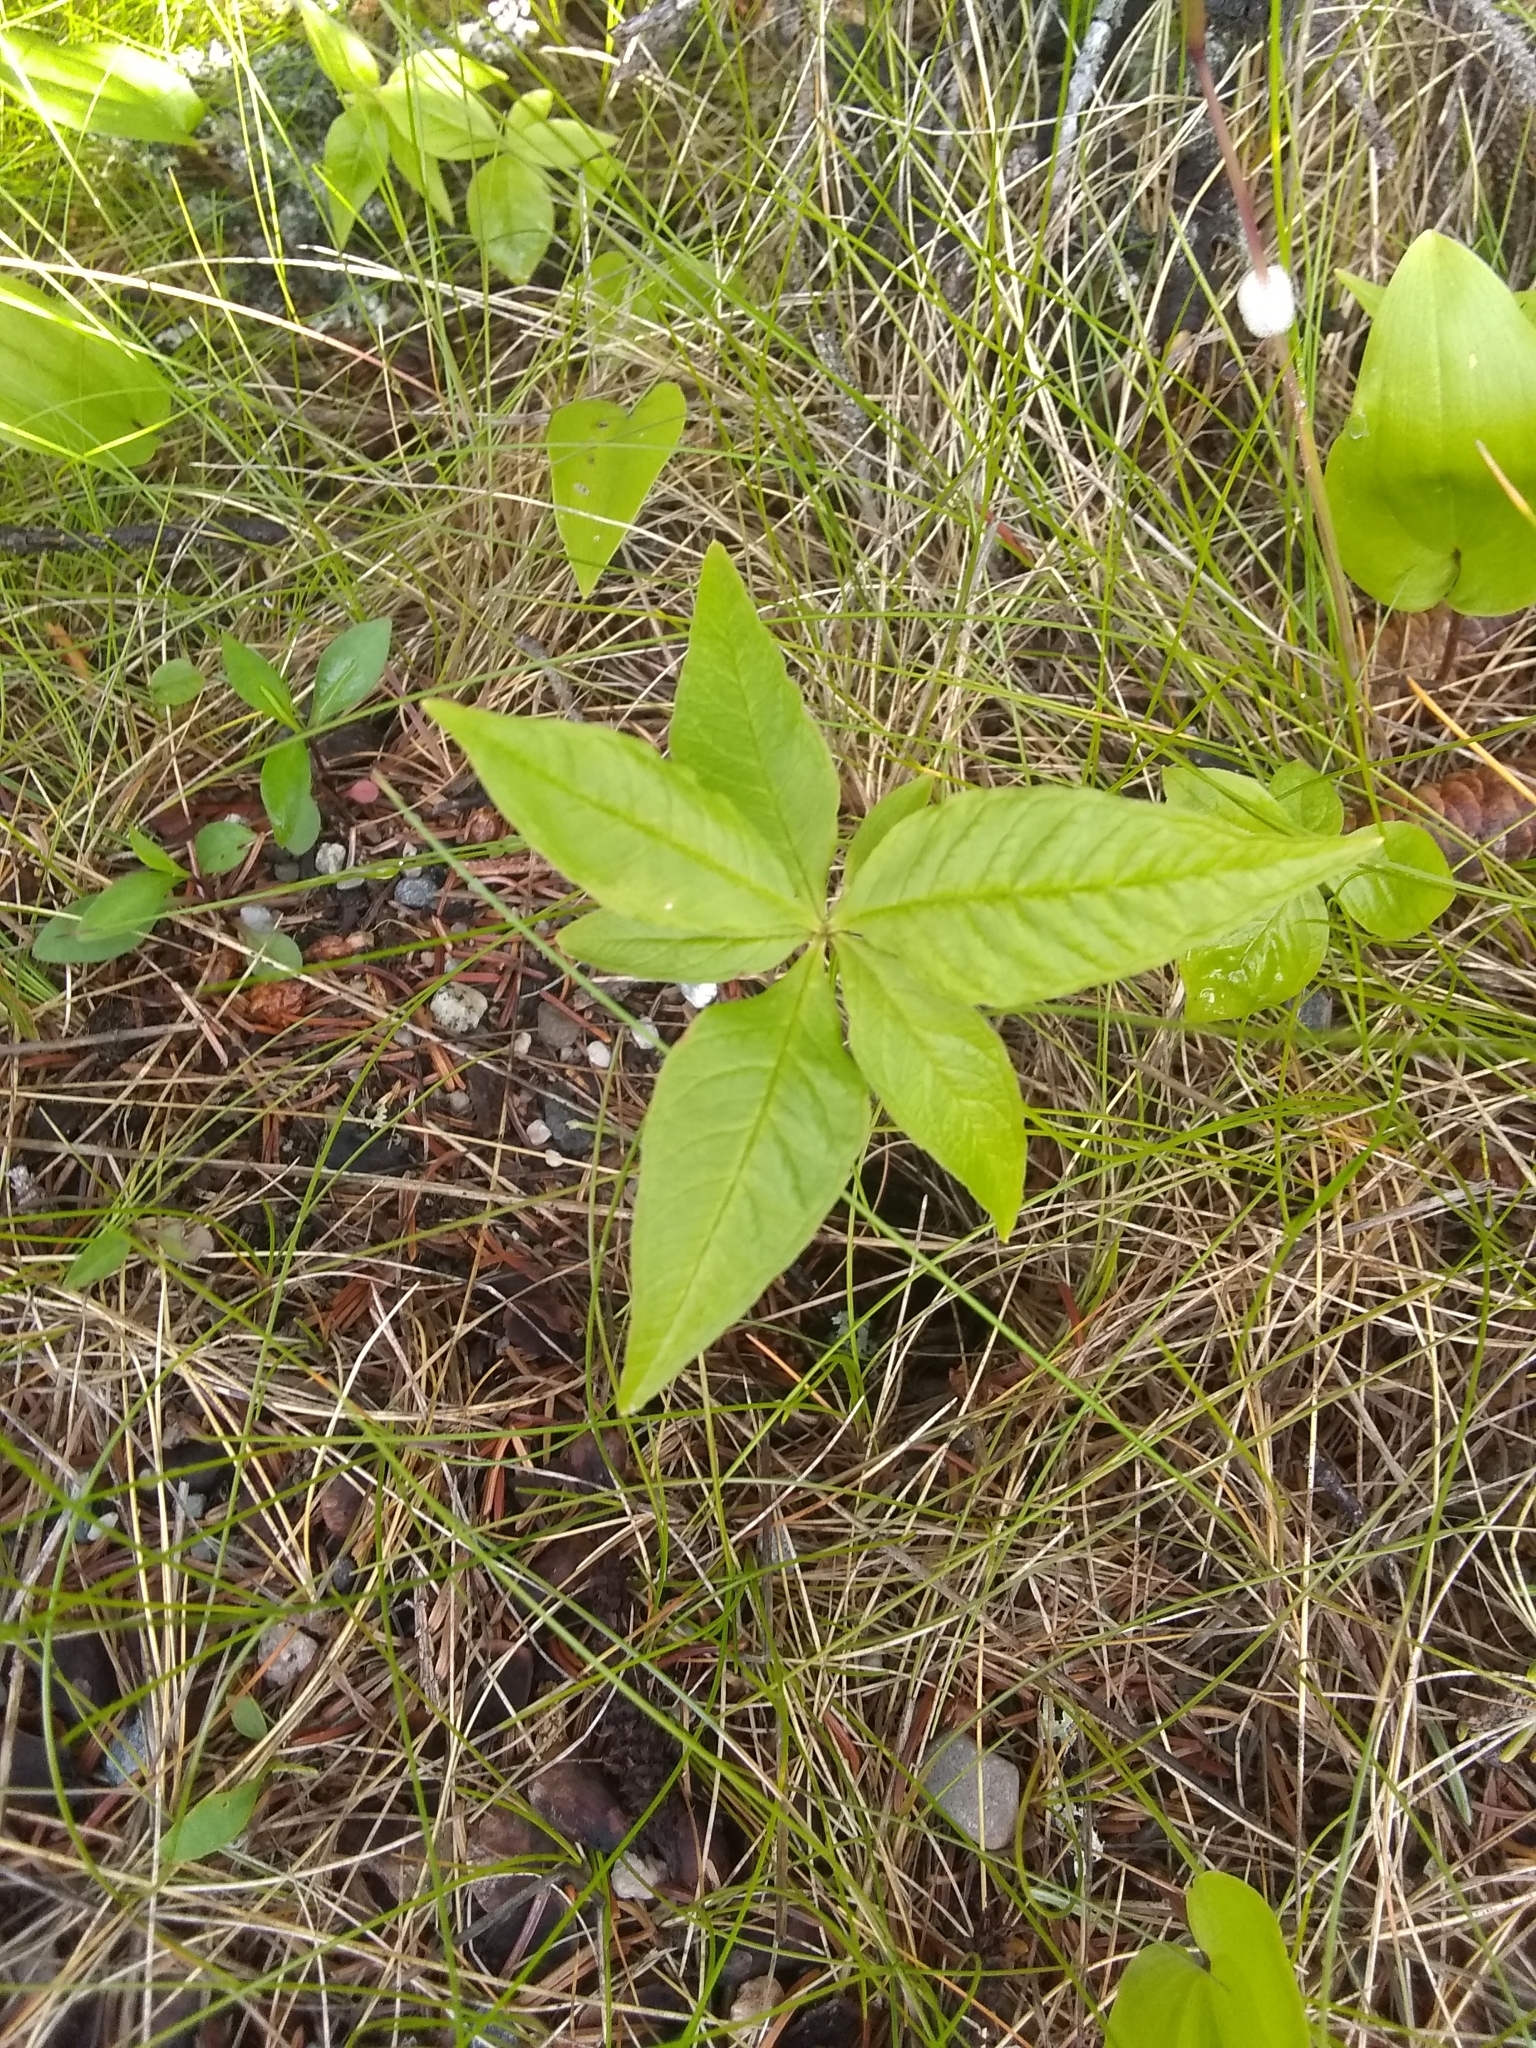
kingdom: Plantae
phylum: Tracheophyta
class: Magnoliopsida
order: Ericales
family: Primulaceae
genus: Lysimachia
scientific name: Lysimachia borealis
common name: American starflower
